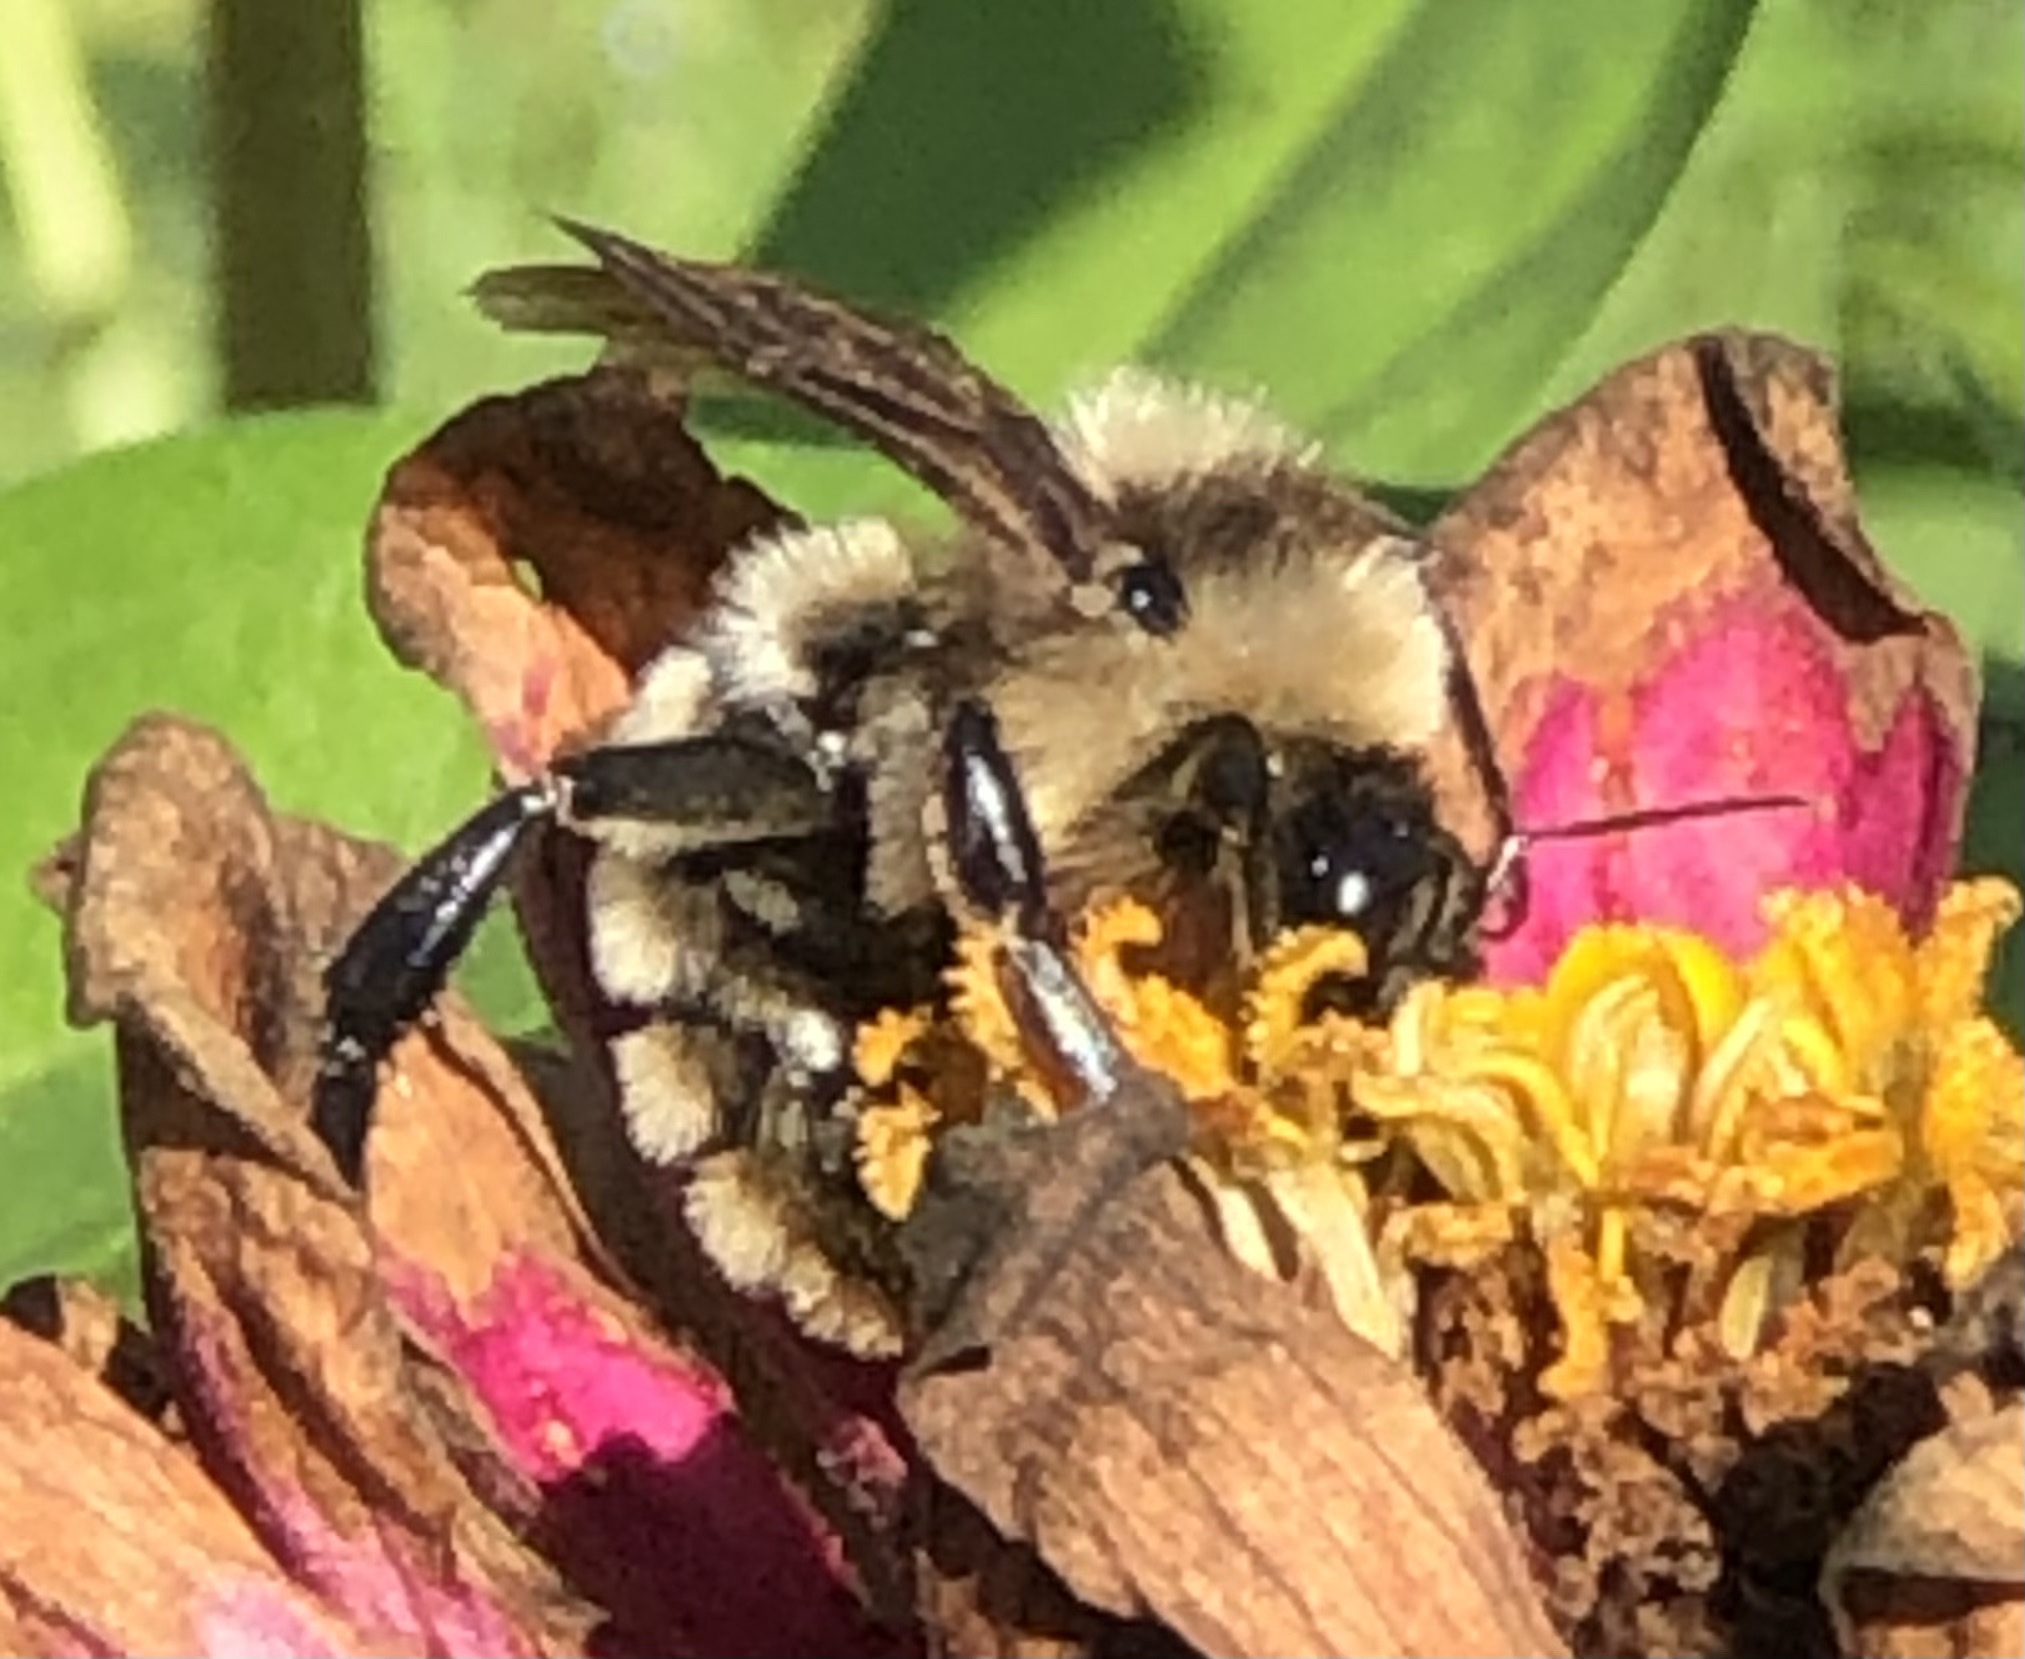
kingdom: Animalia
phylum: Arthropoda
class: Insecta
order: Hymenoptera
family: Apidae
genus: Bombus
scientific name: Bombus pensylvanicus
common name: Bumble bee
